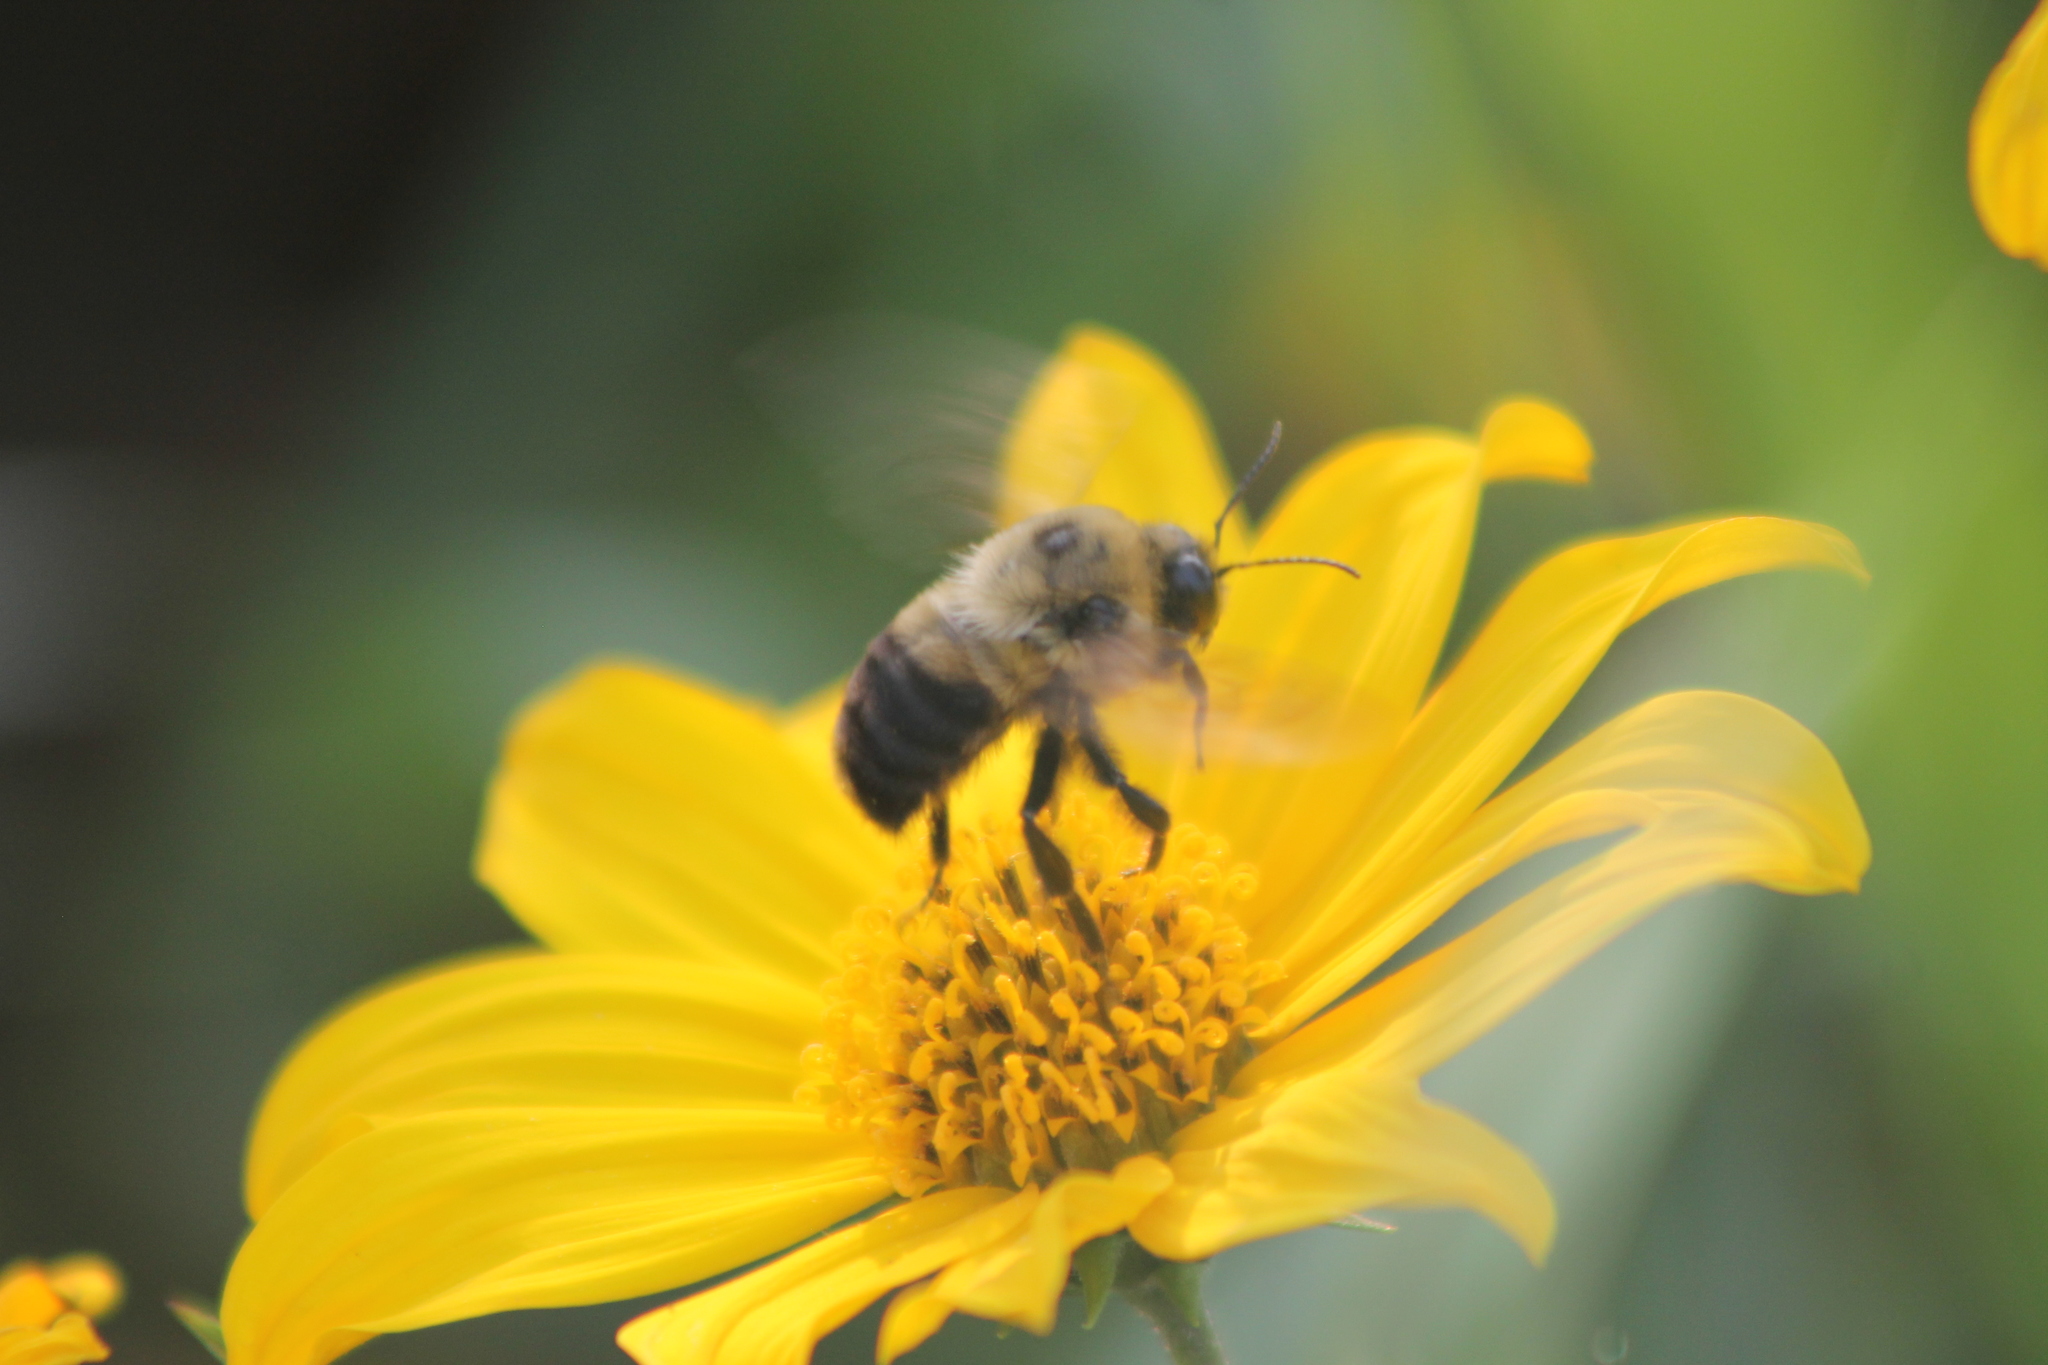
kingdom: Animalia
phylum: Arthropoda
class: Insecta
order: Hymenoptera
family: Apidae
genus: Bombus
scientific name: Bombus griseocollis
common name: Brown-belted bumble bee
